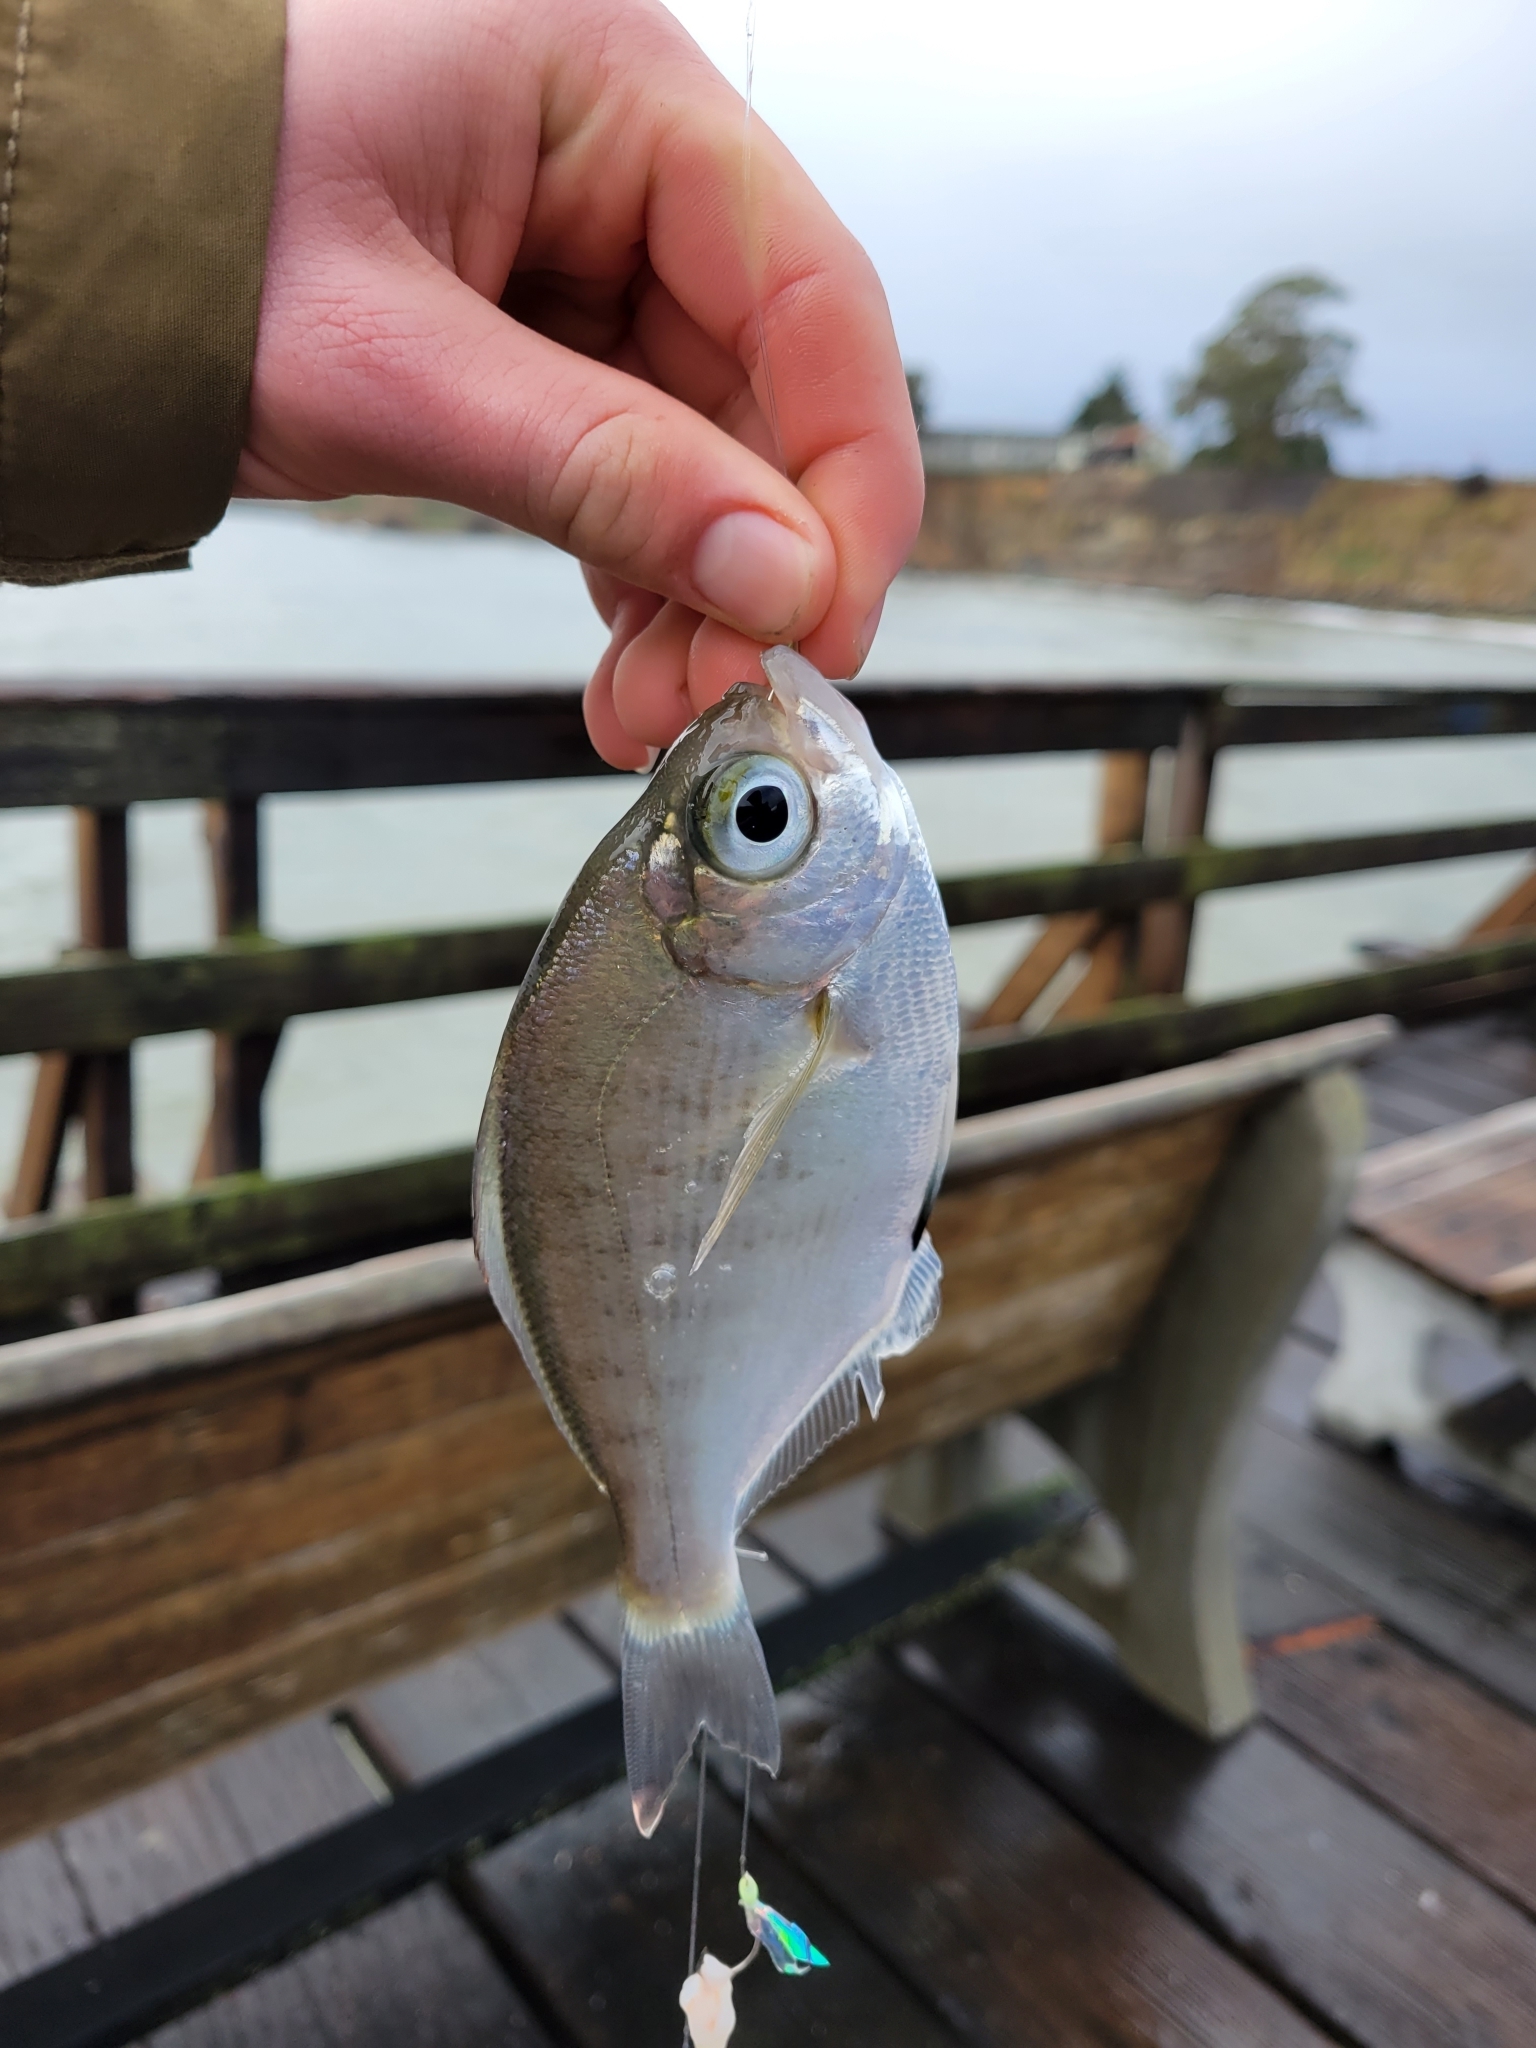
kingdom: Animalia
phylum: Chordata
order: Perciformes
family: Embiotocidae
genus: Hyperprosopon
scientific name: Hyperprosopon argenteum
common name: Walleye surfperch
